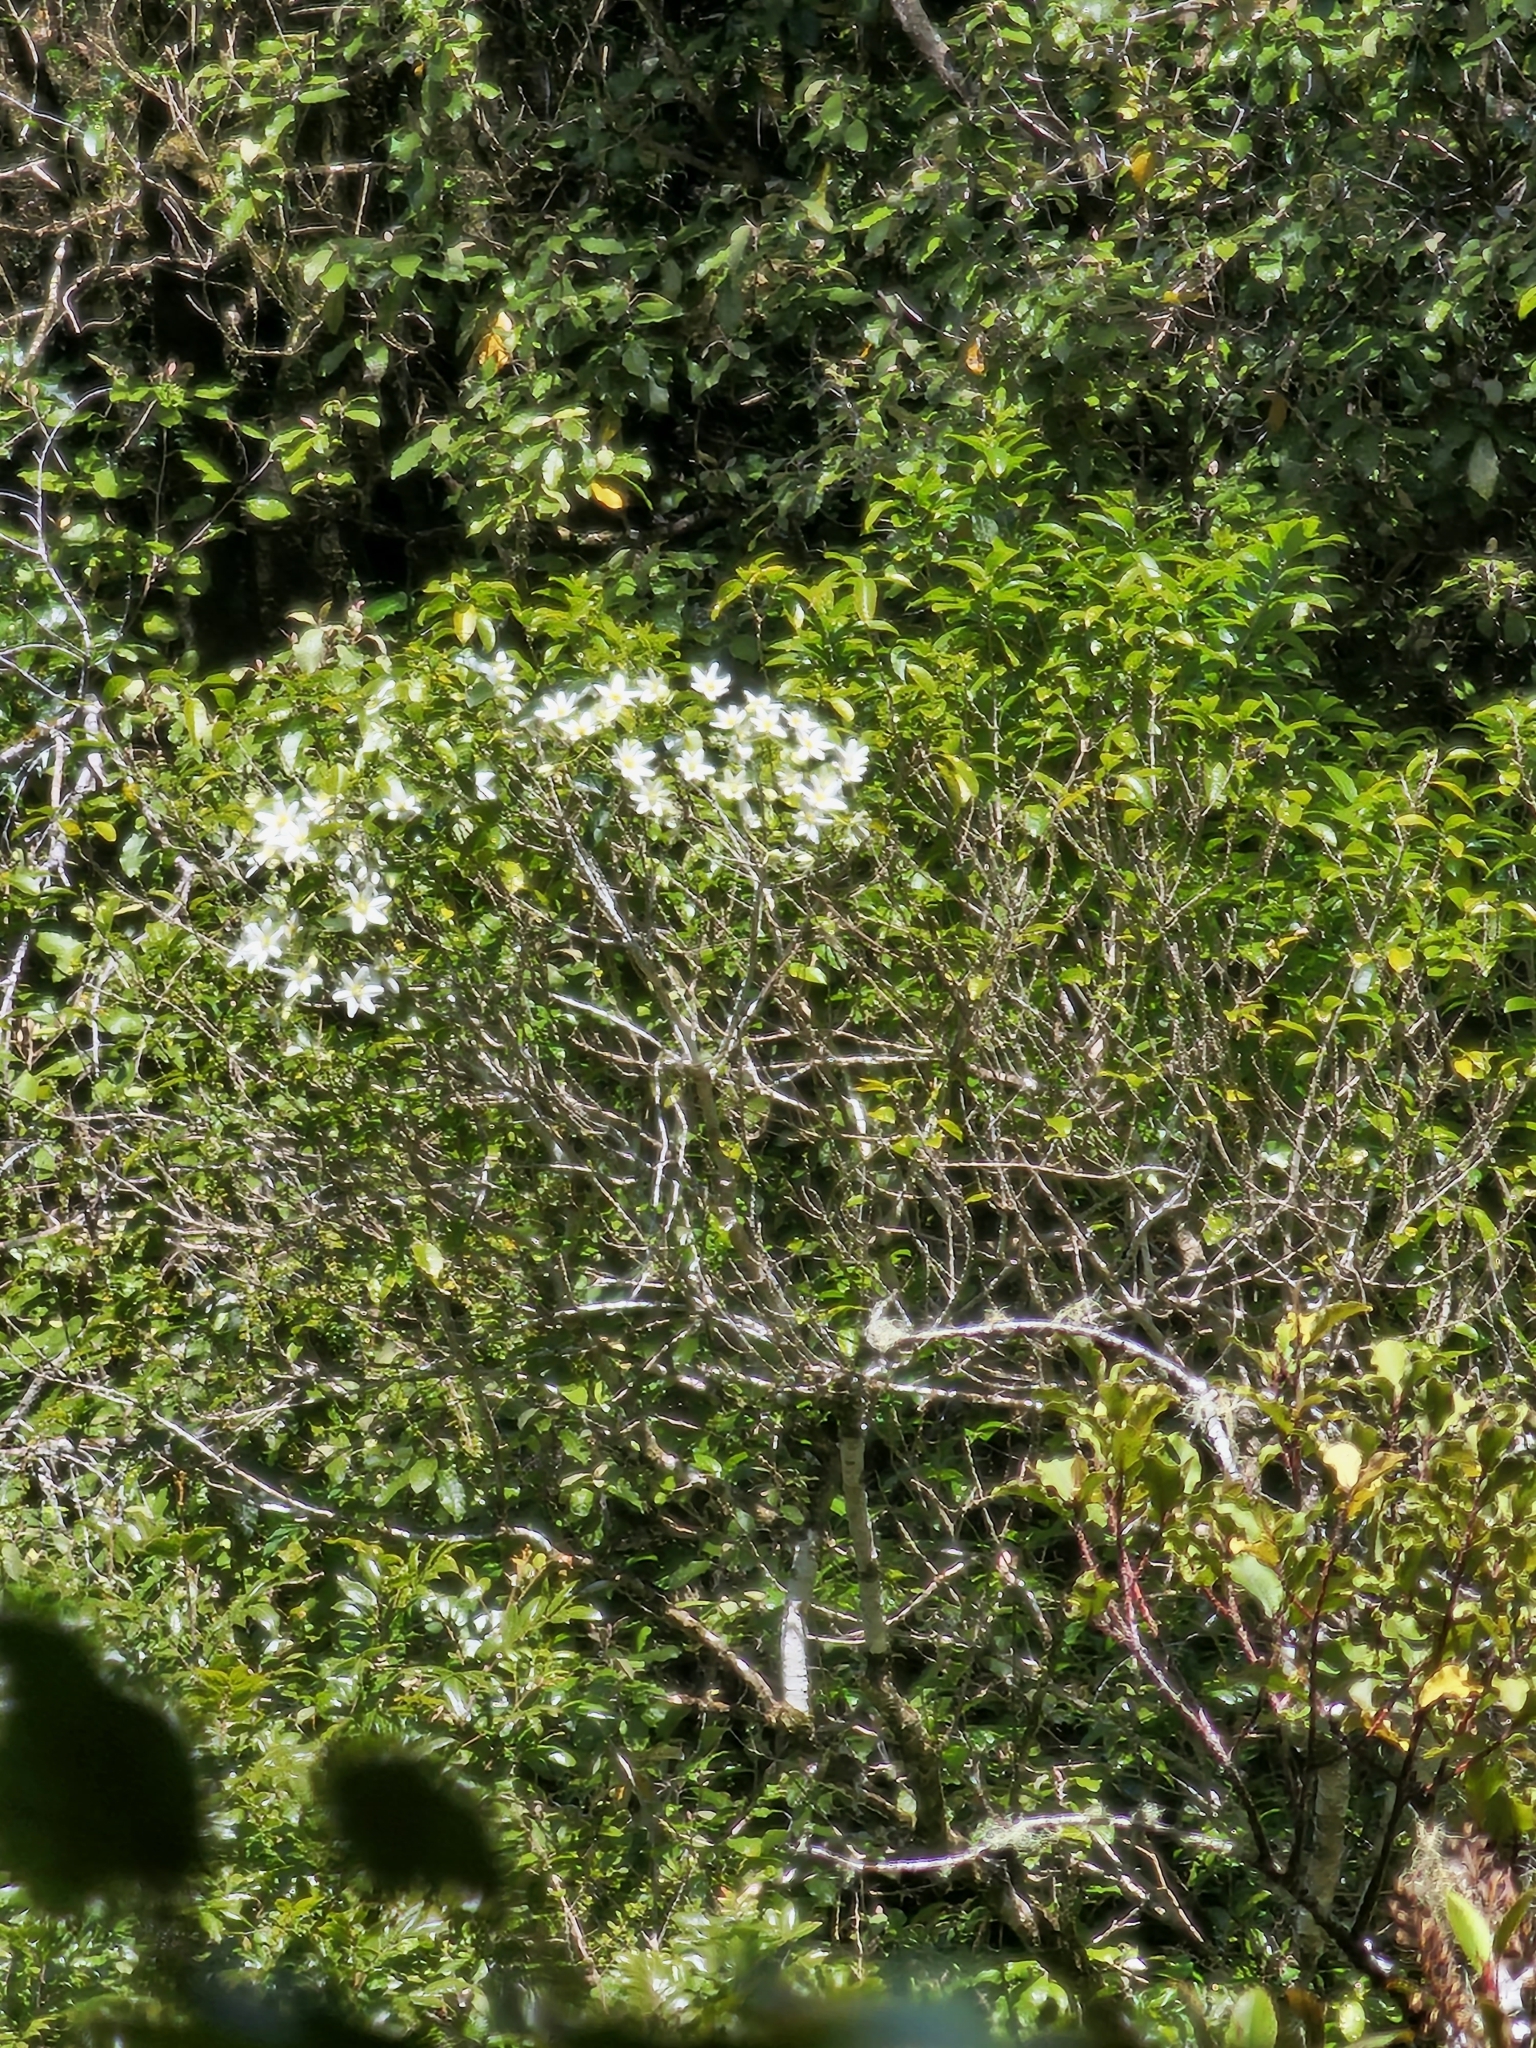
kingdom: Plantae
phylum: Tracheophyta
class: Magnoliopsida
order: Ranunculales
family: Ranunculaceae
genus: Clematis
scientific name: Clematis paniculata
